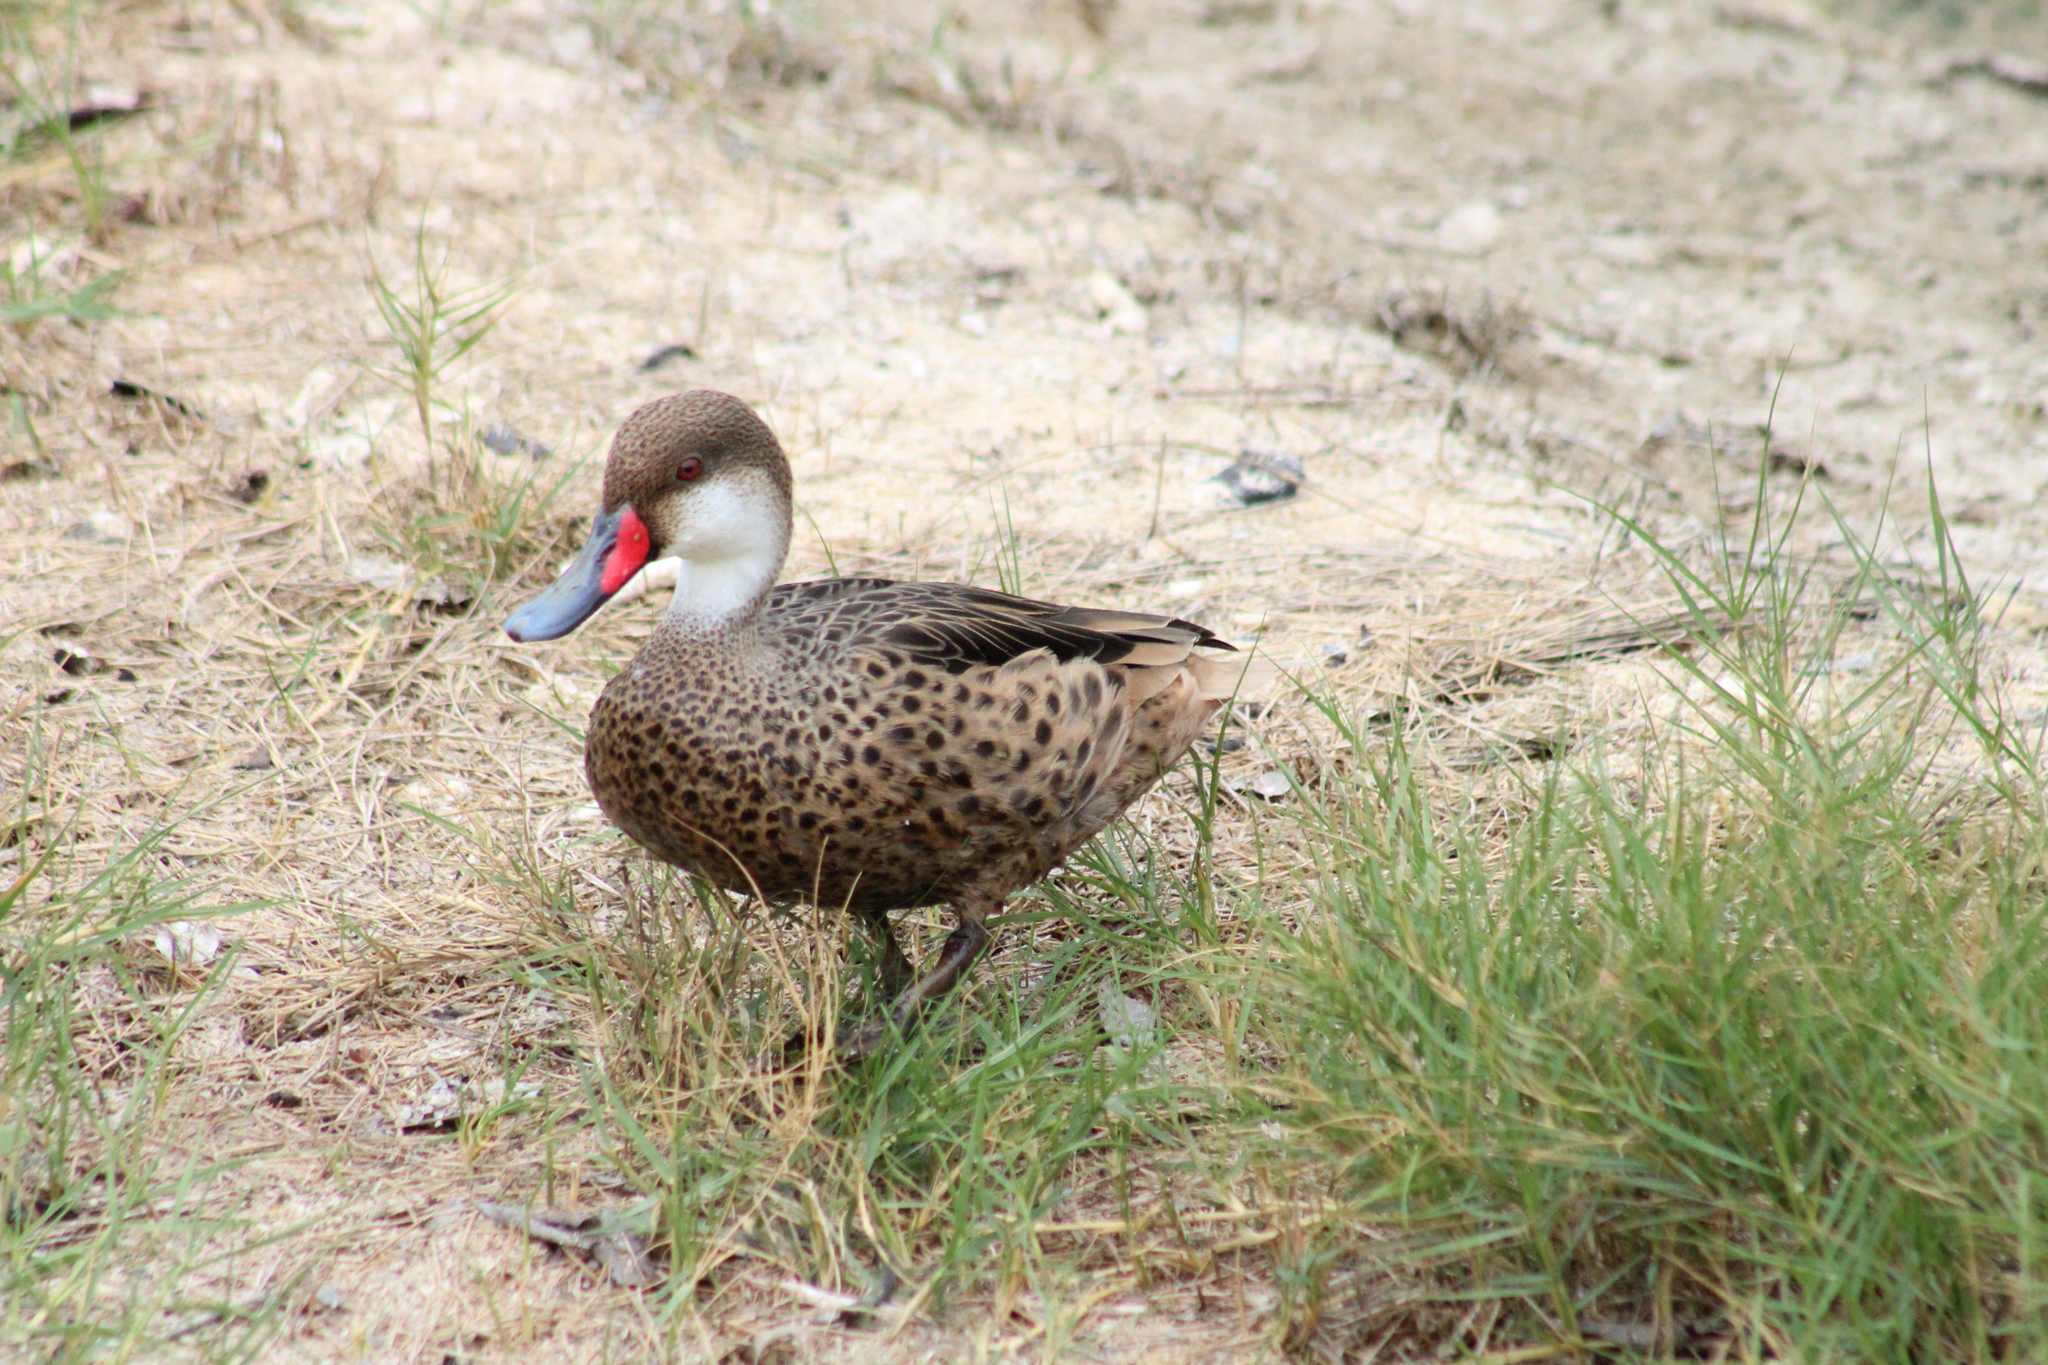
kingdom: Animalia
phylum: Chordata
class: Aves
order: Anseriformes
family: Anatidae
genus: Anas
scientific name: Anas bahamensis
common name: White-cheeked pintail
